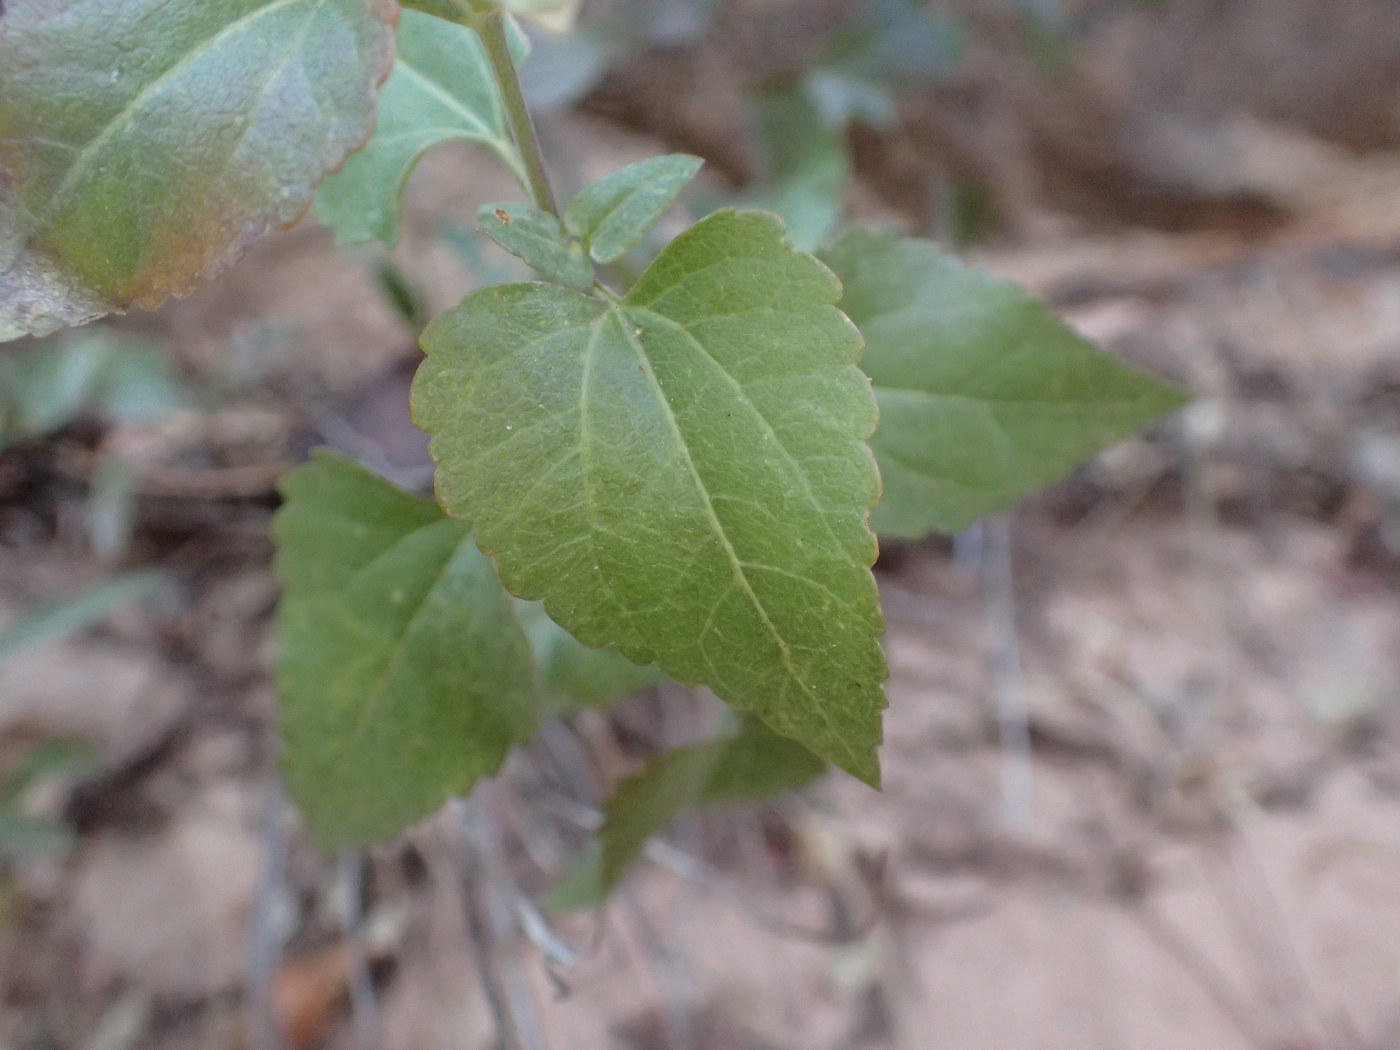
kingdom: Plantae
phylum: Tracheophyta
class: Magnoliopsida
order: Asterales
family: Asteraceae
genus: Ageratina
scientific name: Ageratina herbacea
